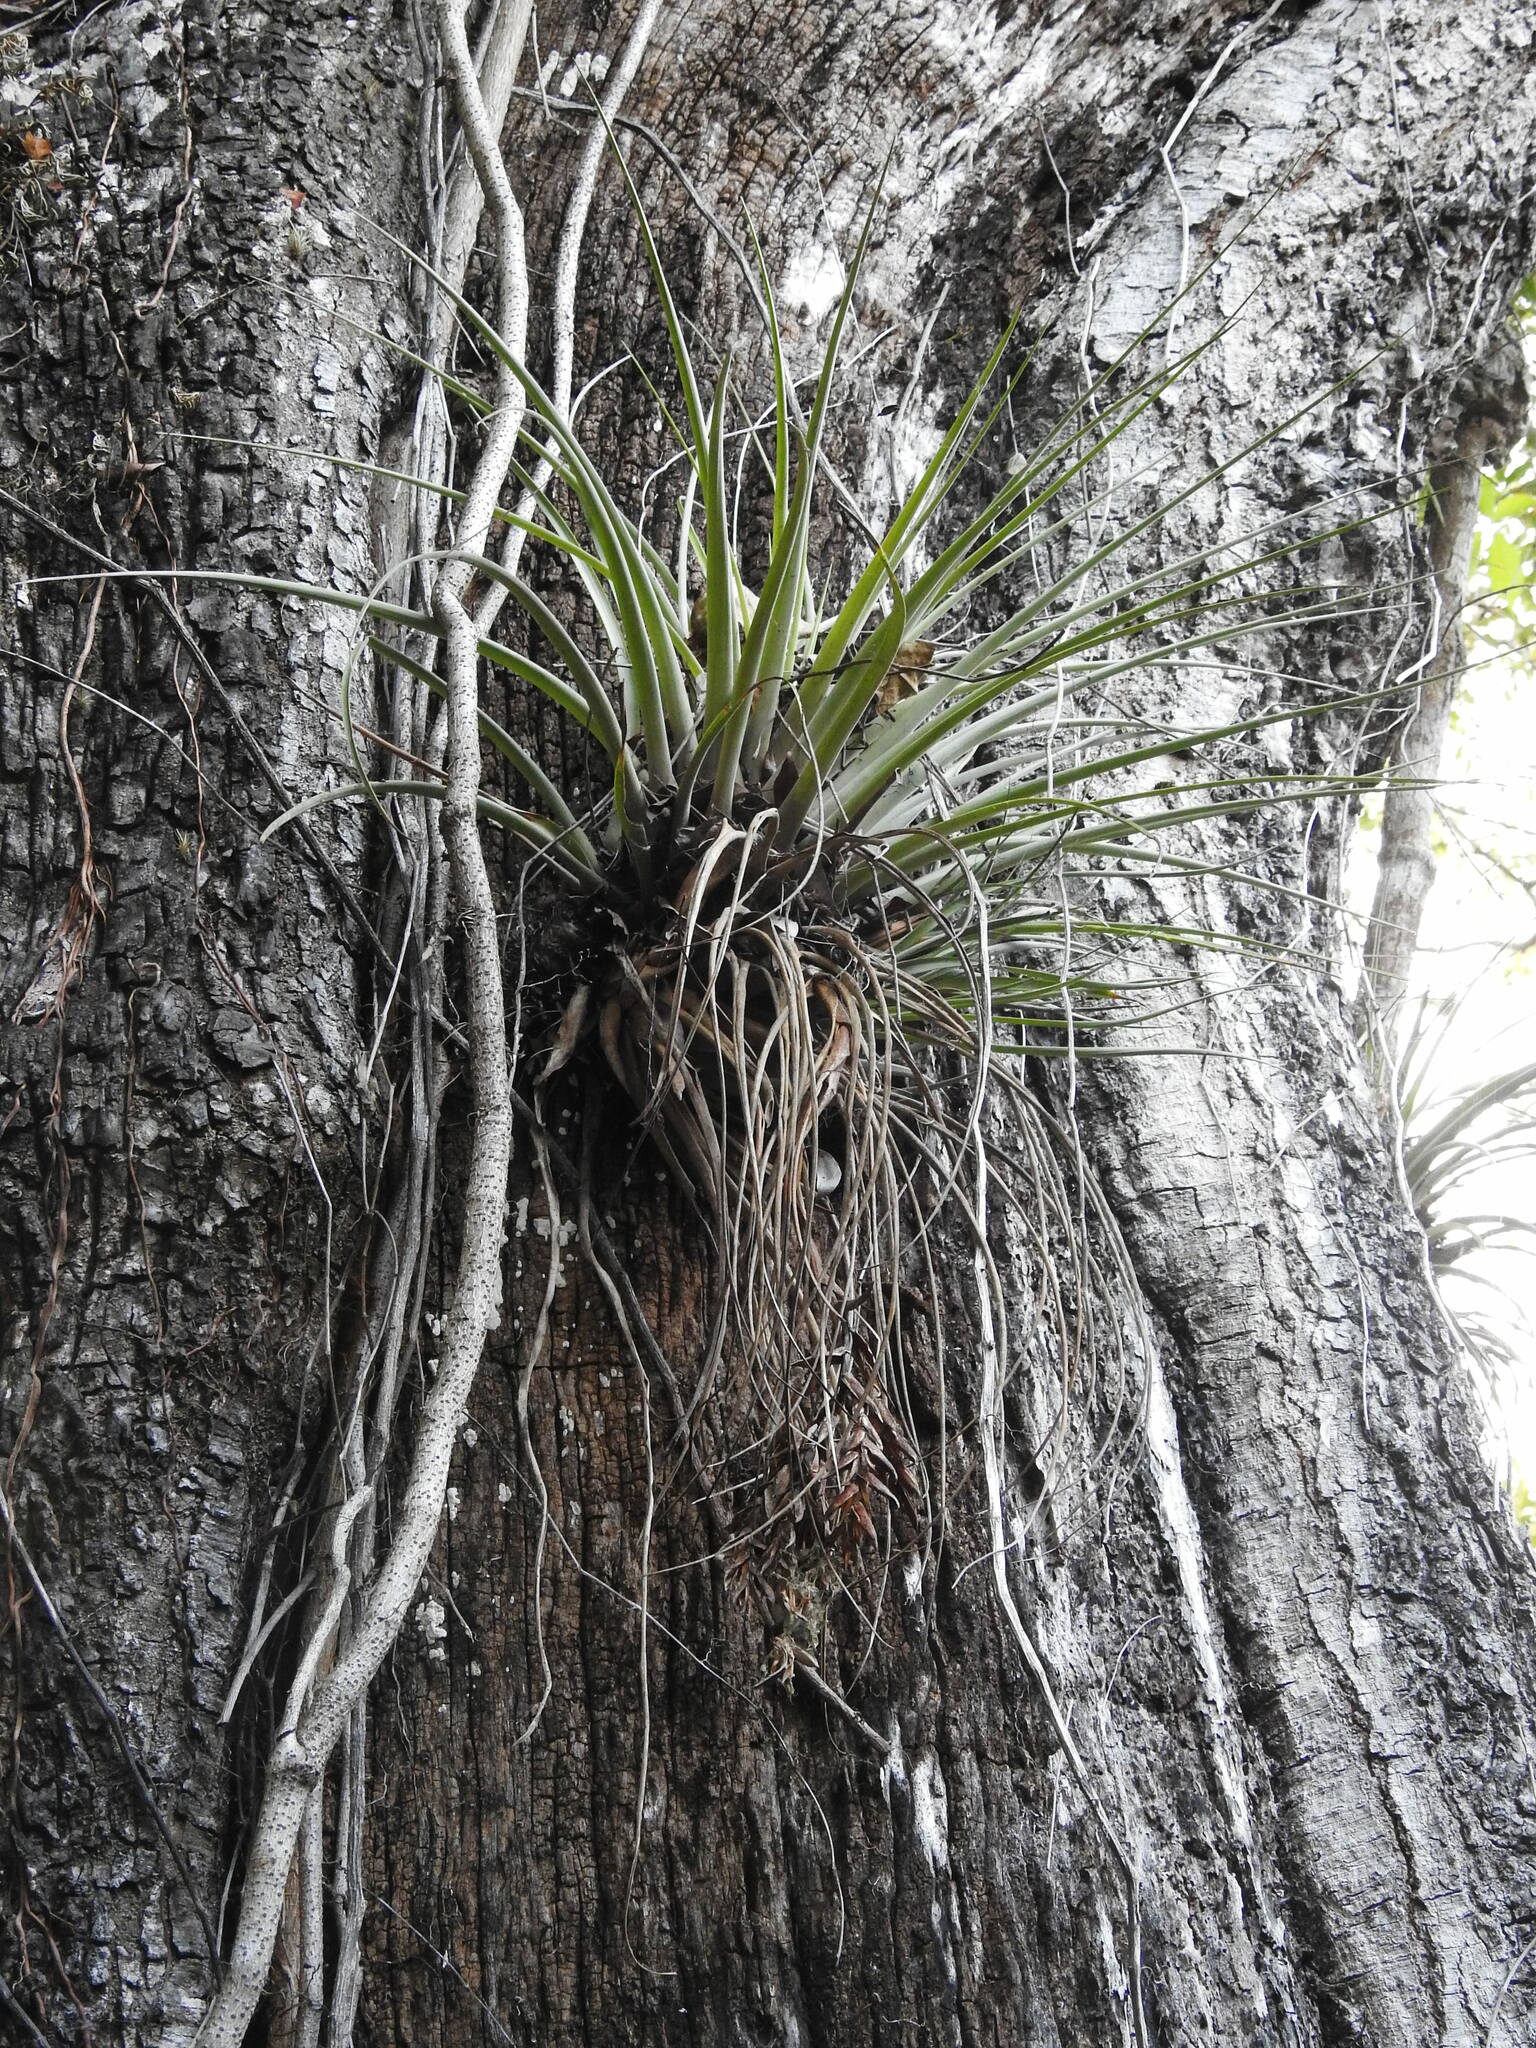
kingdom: Plantae
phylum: Tracheophyta
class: Liliopsida
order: Poales
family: Bromeliaceae
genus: Tillandsia
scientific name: Tillandsia fasciculata
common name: Giant airplant
